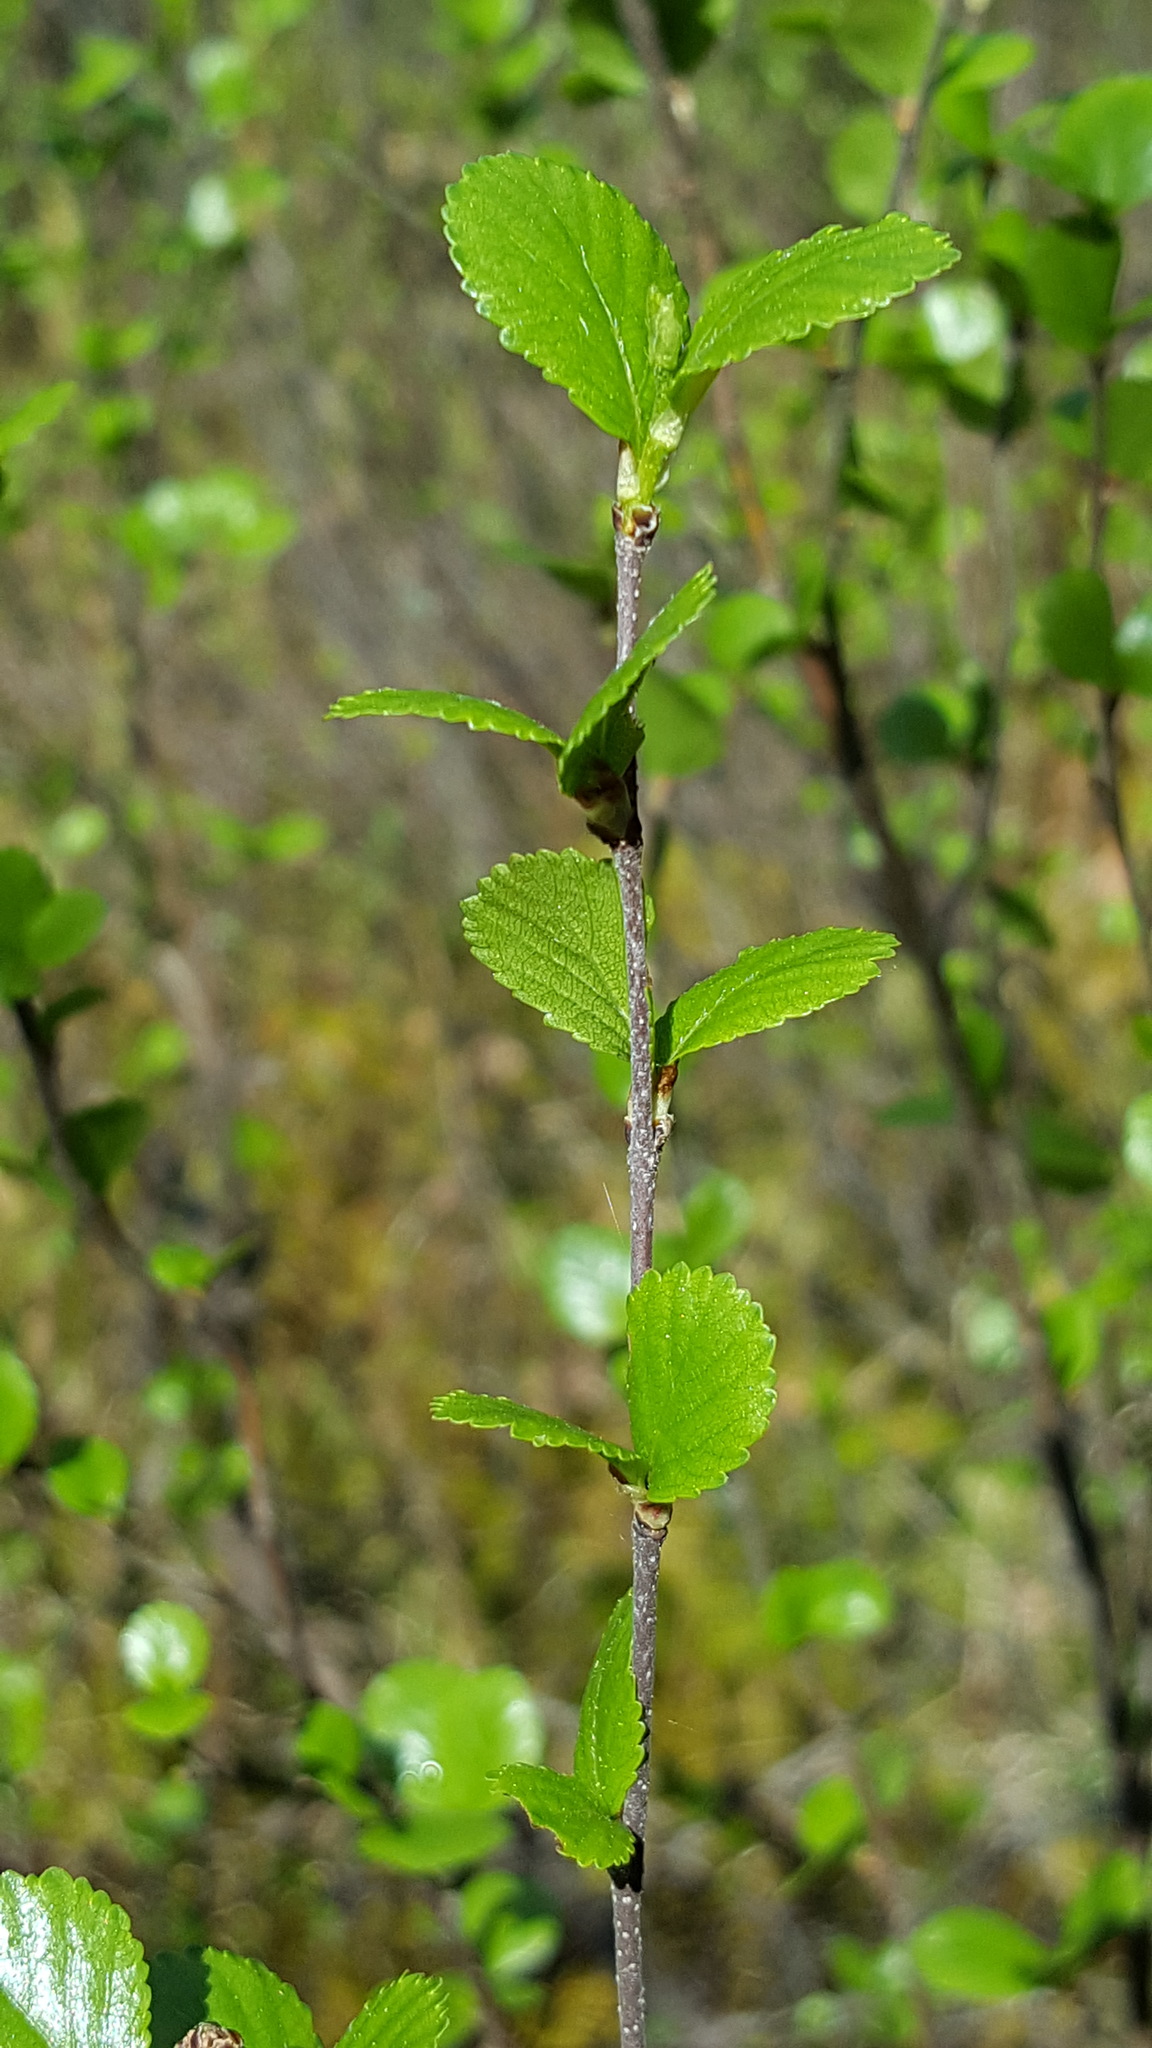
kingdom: Plantae
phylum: Tracheophyta
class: Magnoliopsida
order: Fagales
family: Betulaceae
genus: Betula
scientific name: Betula pumila
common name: Bog birch
